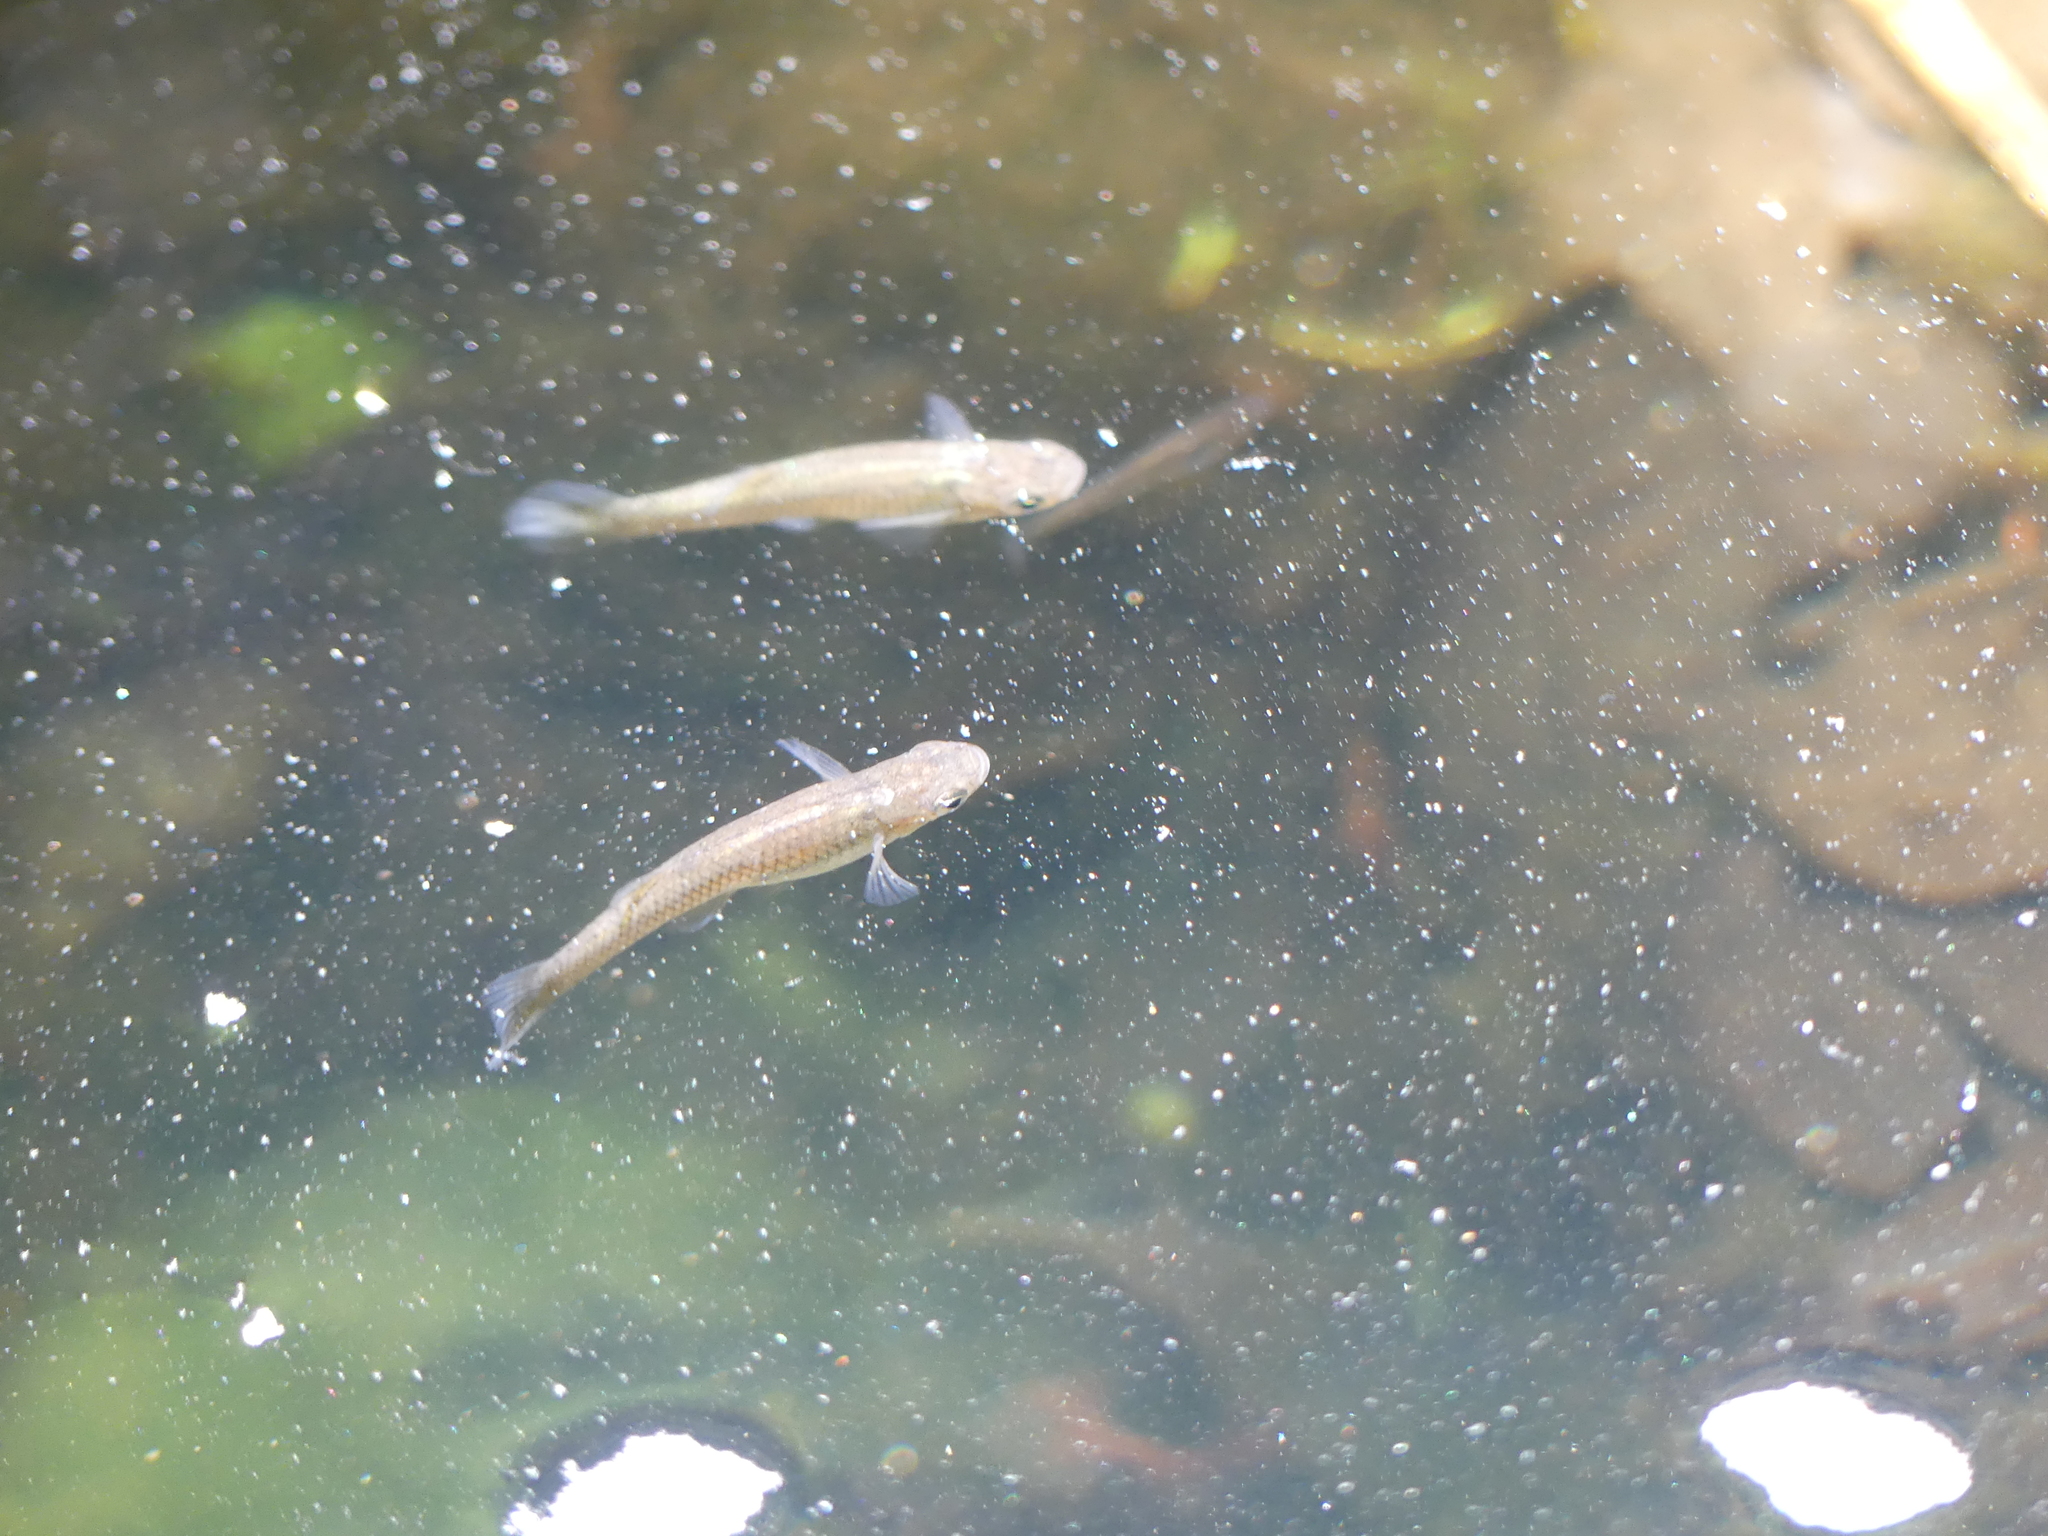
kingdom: Animalia
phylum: Chordata
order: Cyprinodontiformes
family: Poeciliidae
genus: Gambusia
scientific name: Gambusia affinis
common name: Mosquitofish
